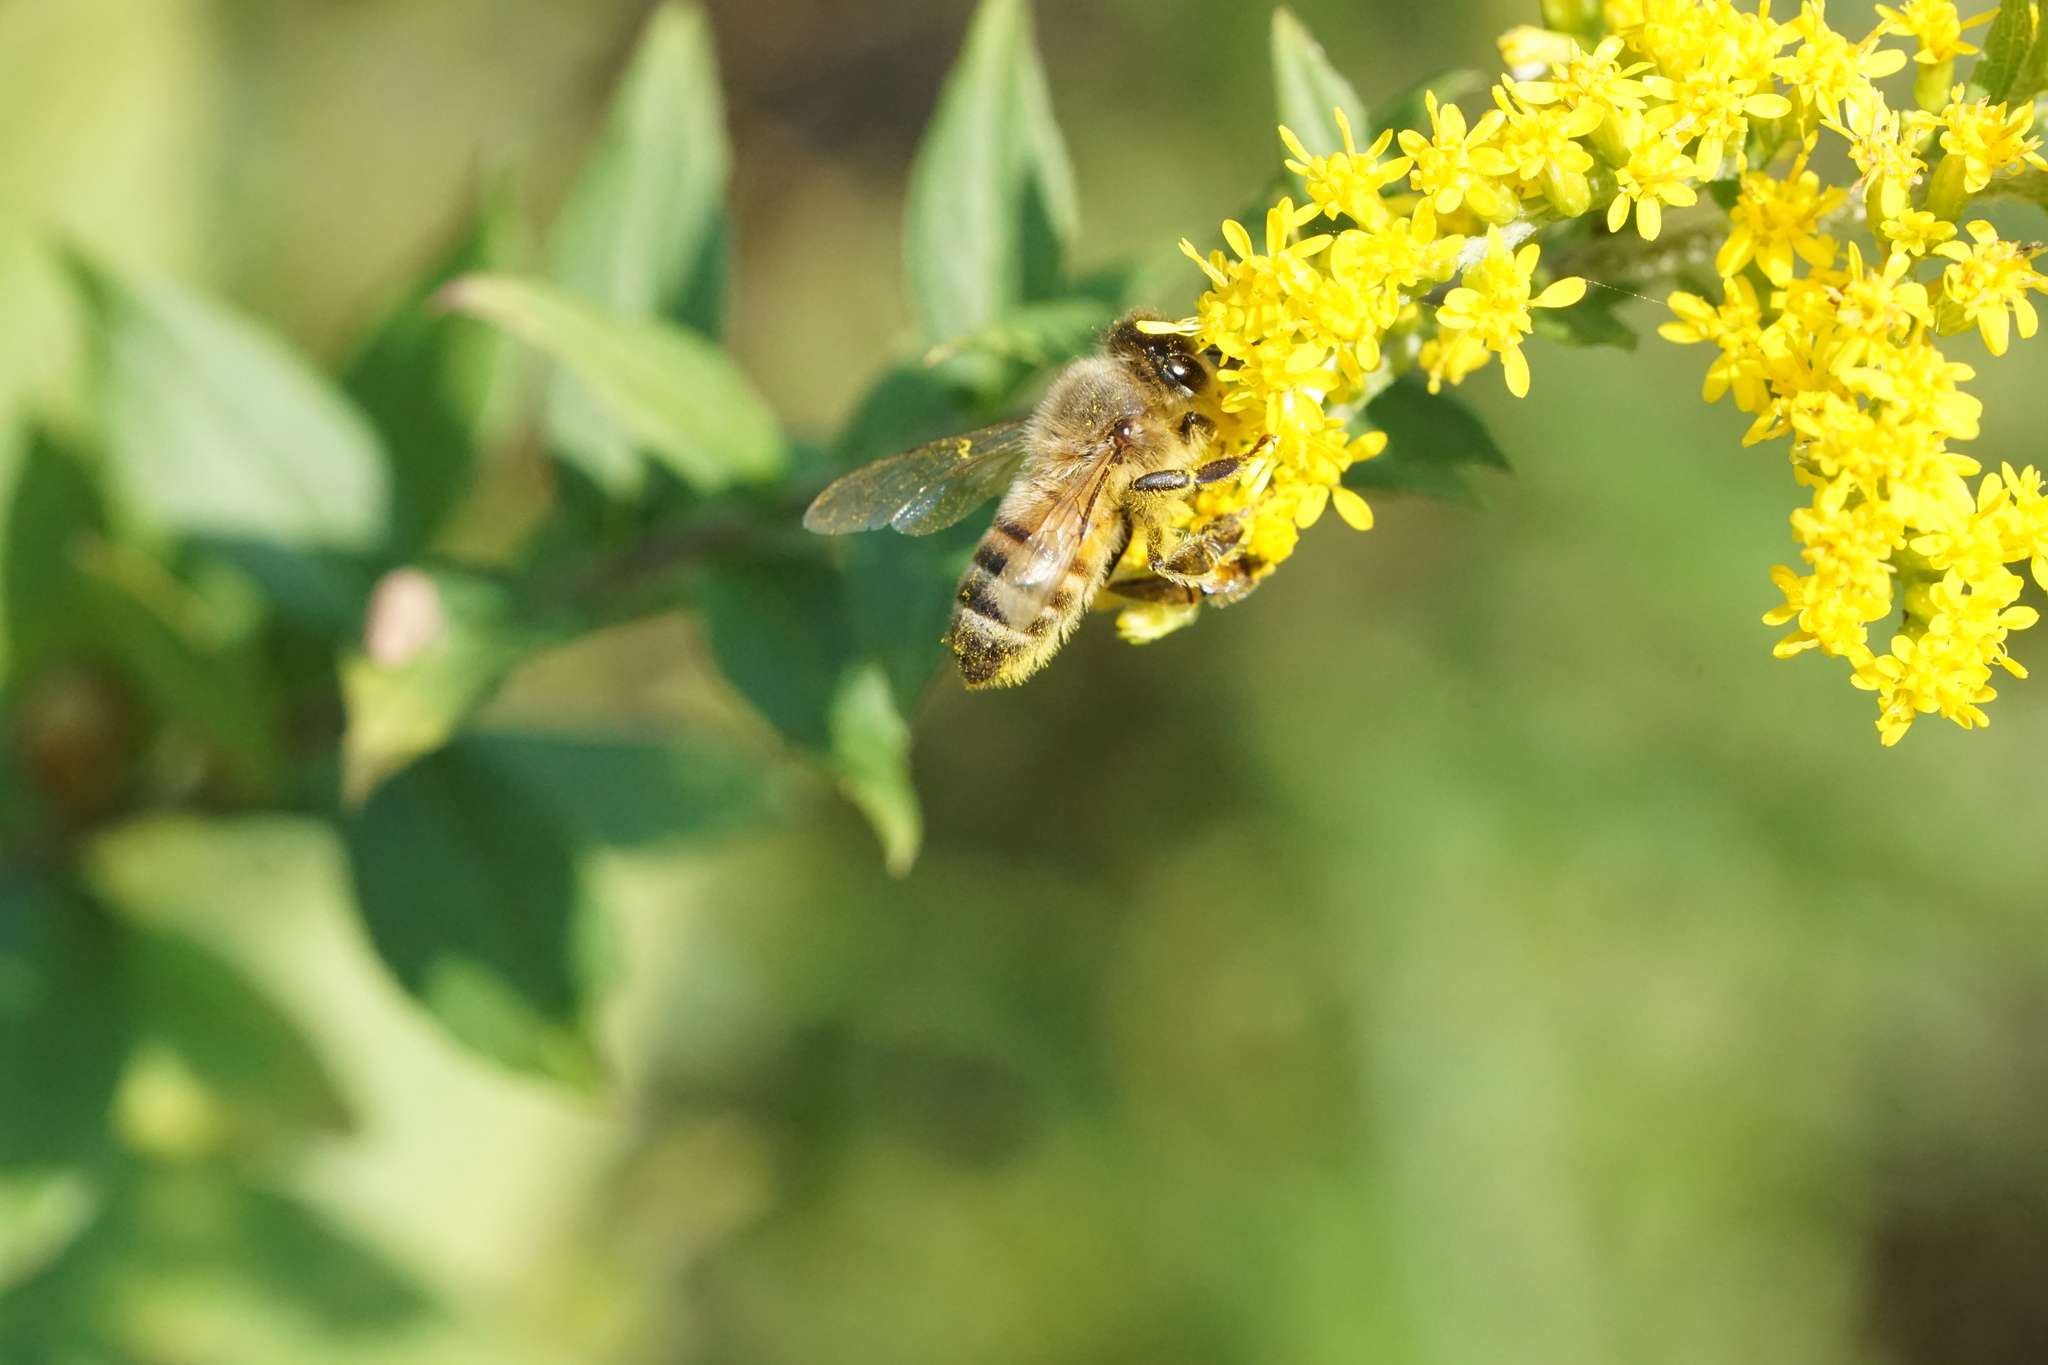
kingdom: Animalia
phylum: Arthropoda
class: Insecta
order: Hymenoptera
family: Apidae
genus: Apis
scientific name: Apis mellifera
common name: Honey bee
